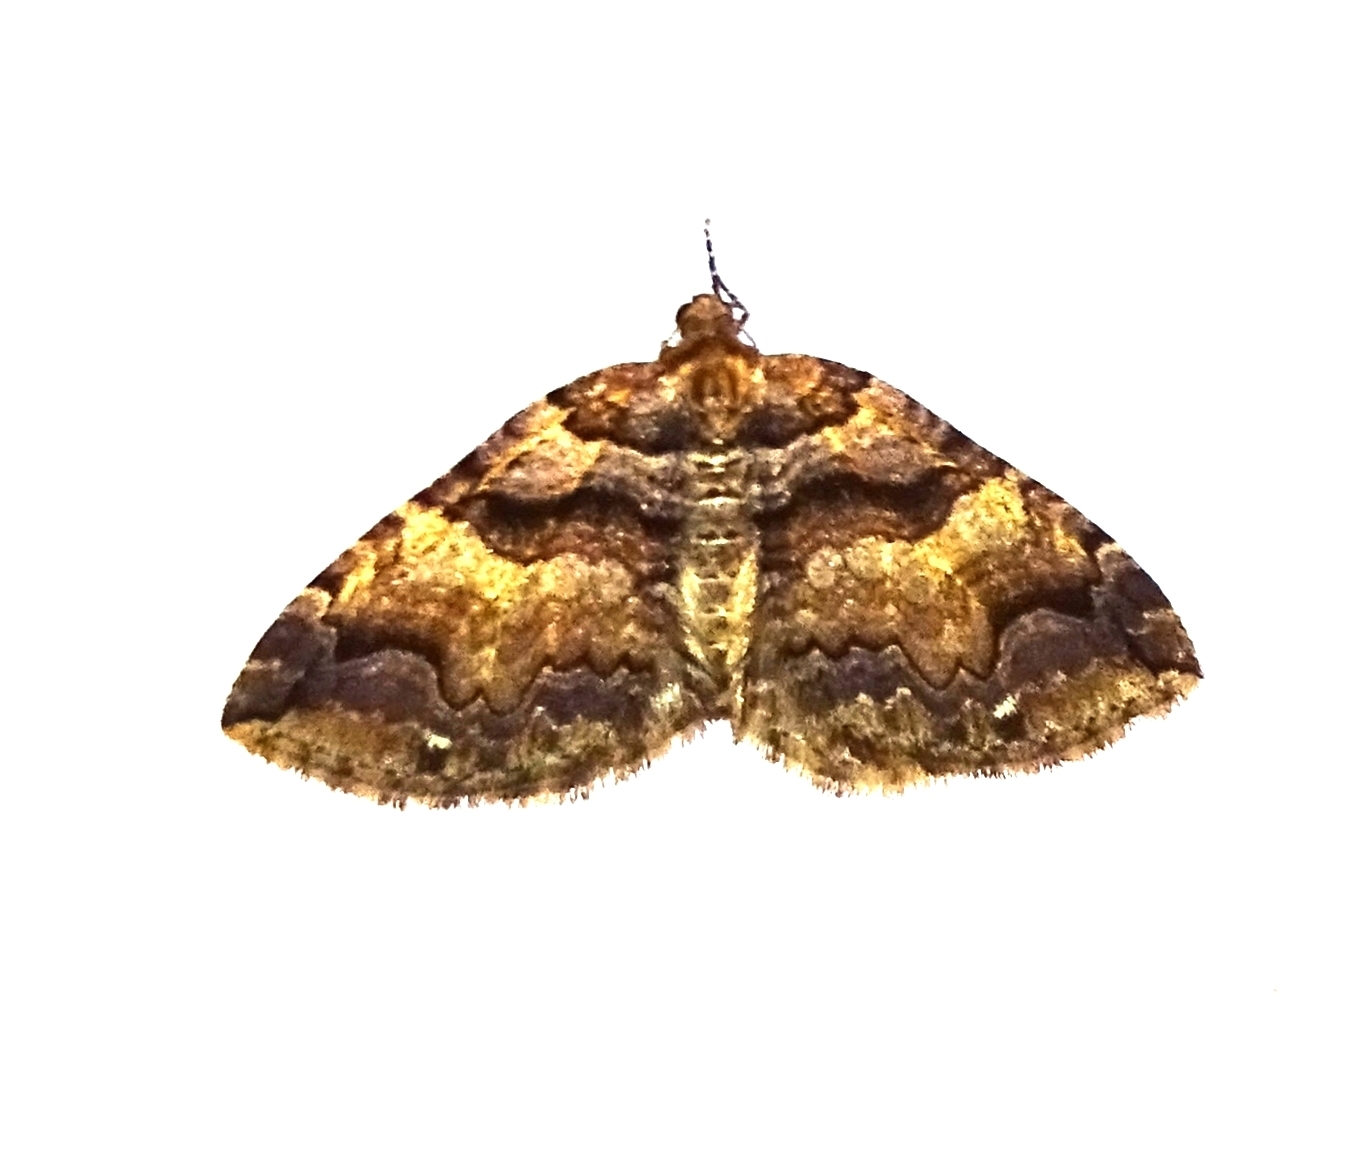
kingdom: Animalia
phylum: Arthropoda
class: Insecta
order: Lepidoptera
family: Geometridae
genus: Anticlea
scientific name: Anticlea vasiliata
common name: Variable carpet
